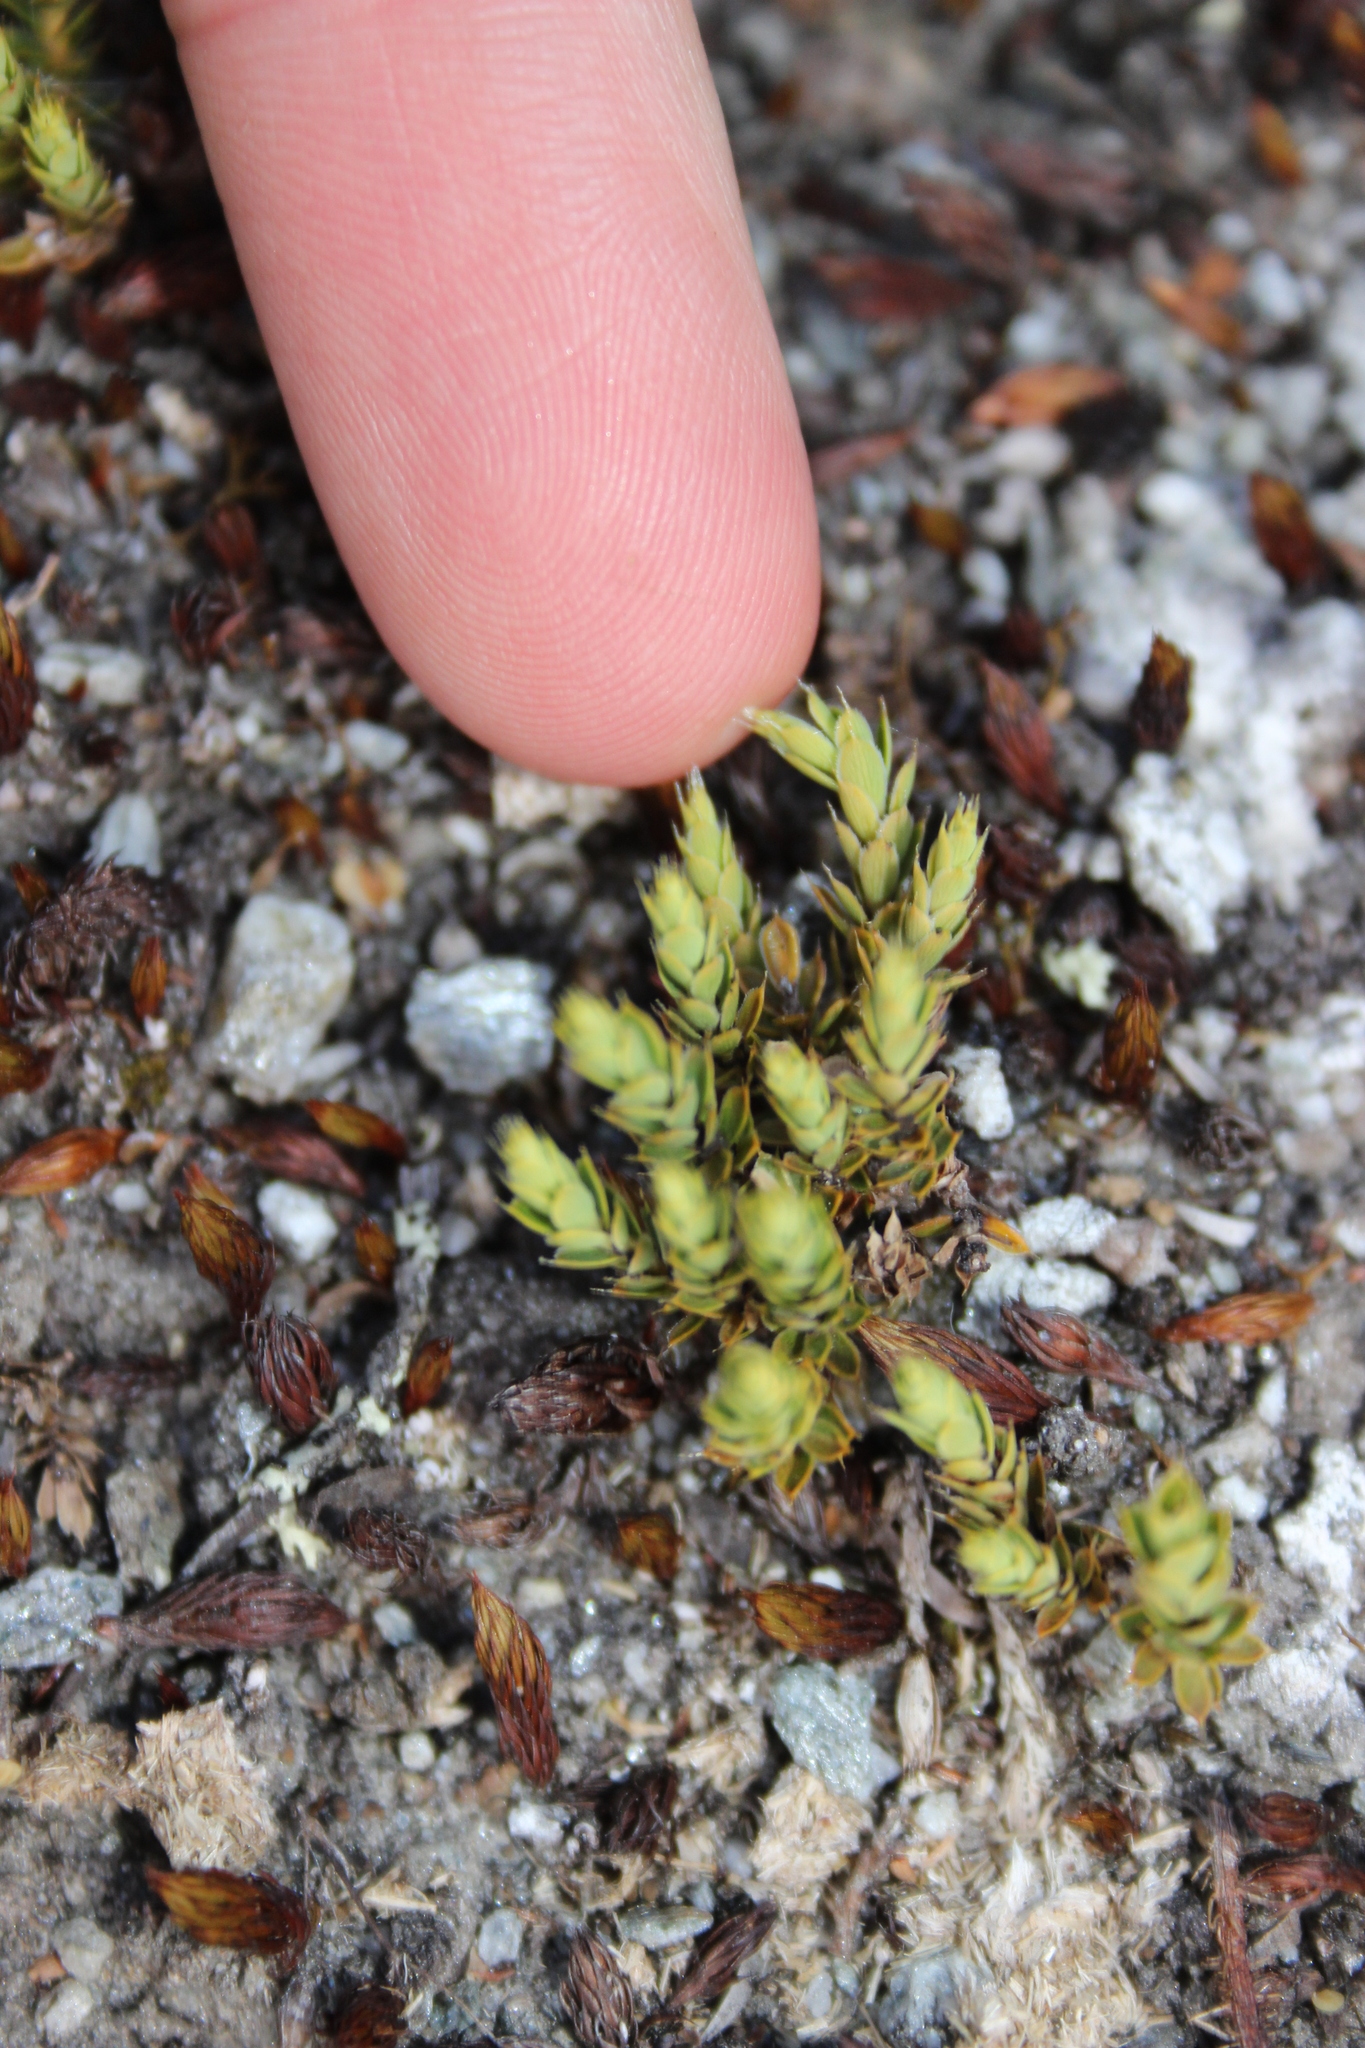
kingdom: Plantae
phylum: Tracheophyta
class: Magnoliopsida
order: Ericales
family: Ericaceae
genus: Styphelia
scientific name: Styphelia nesophila
